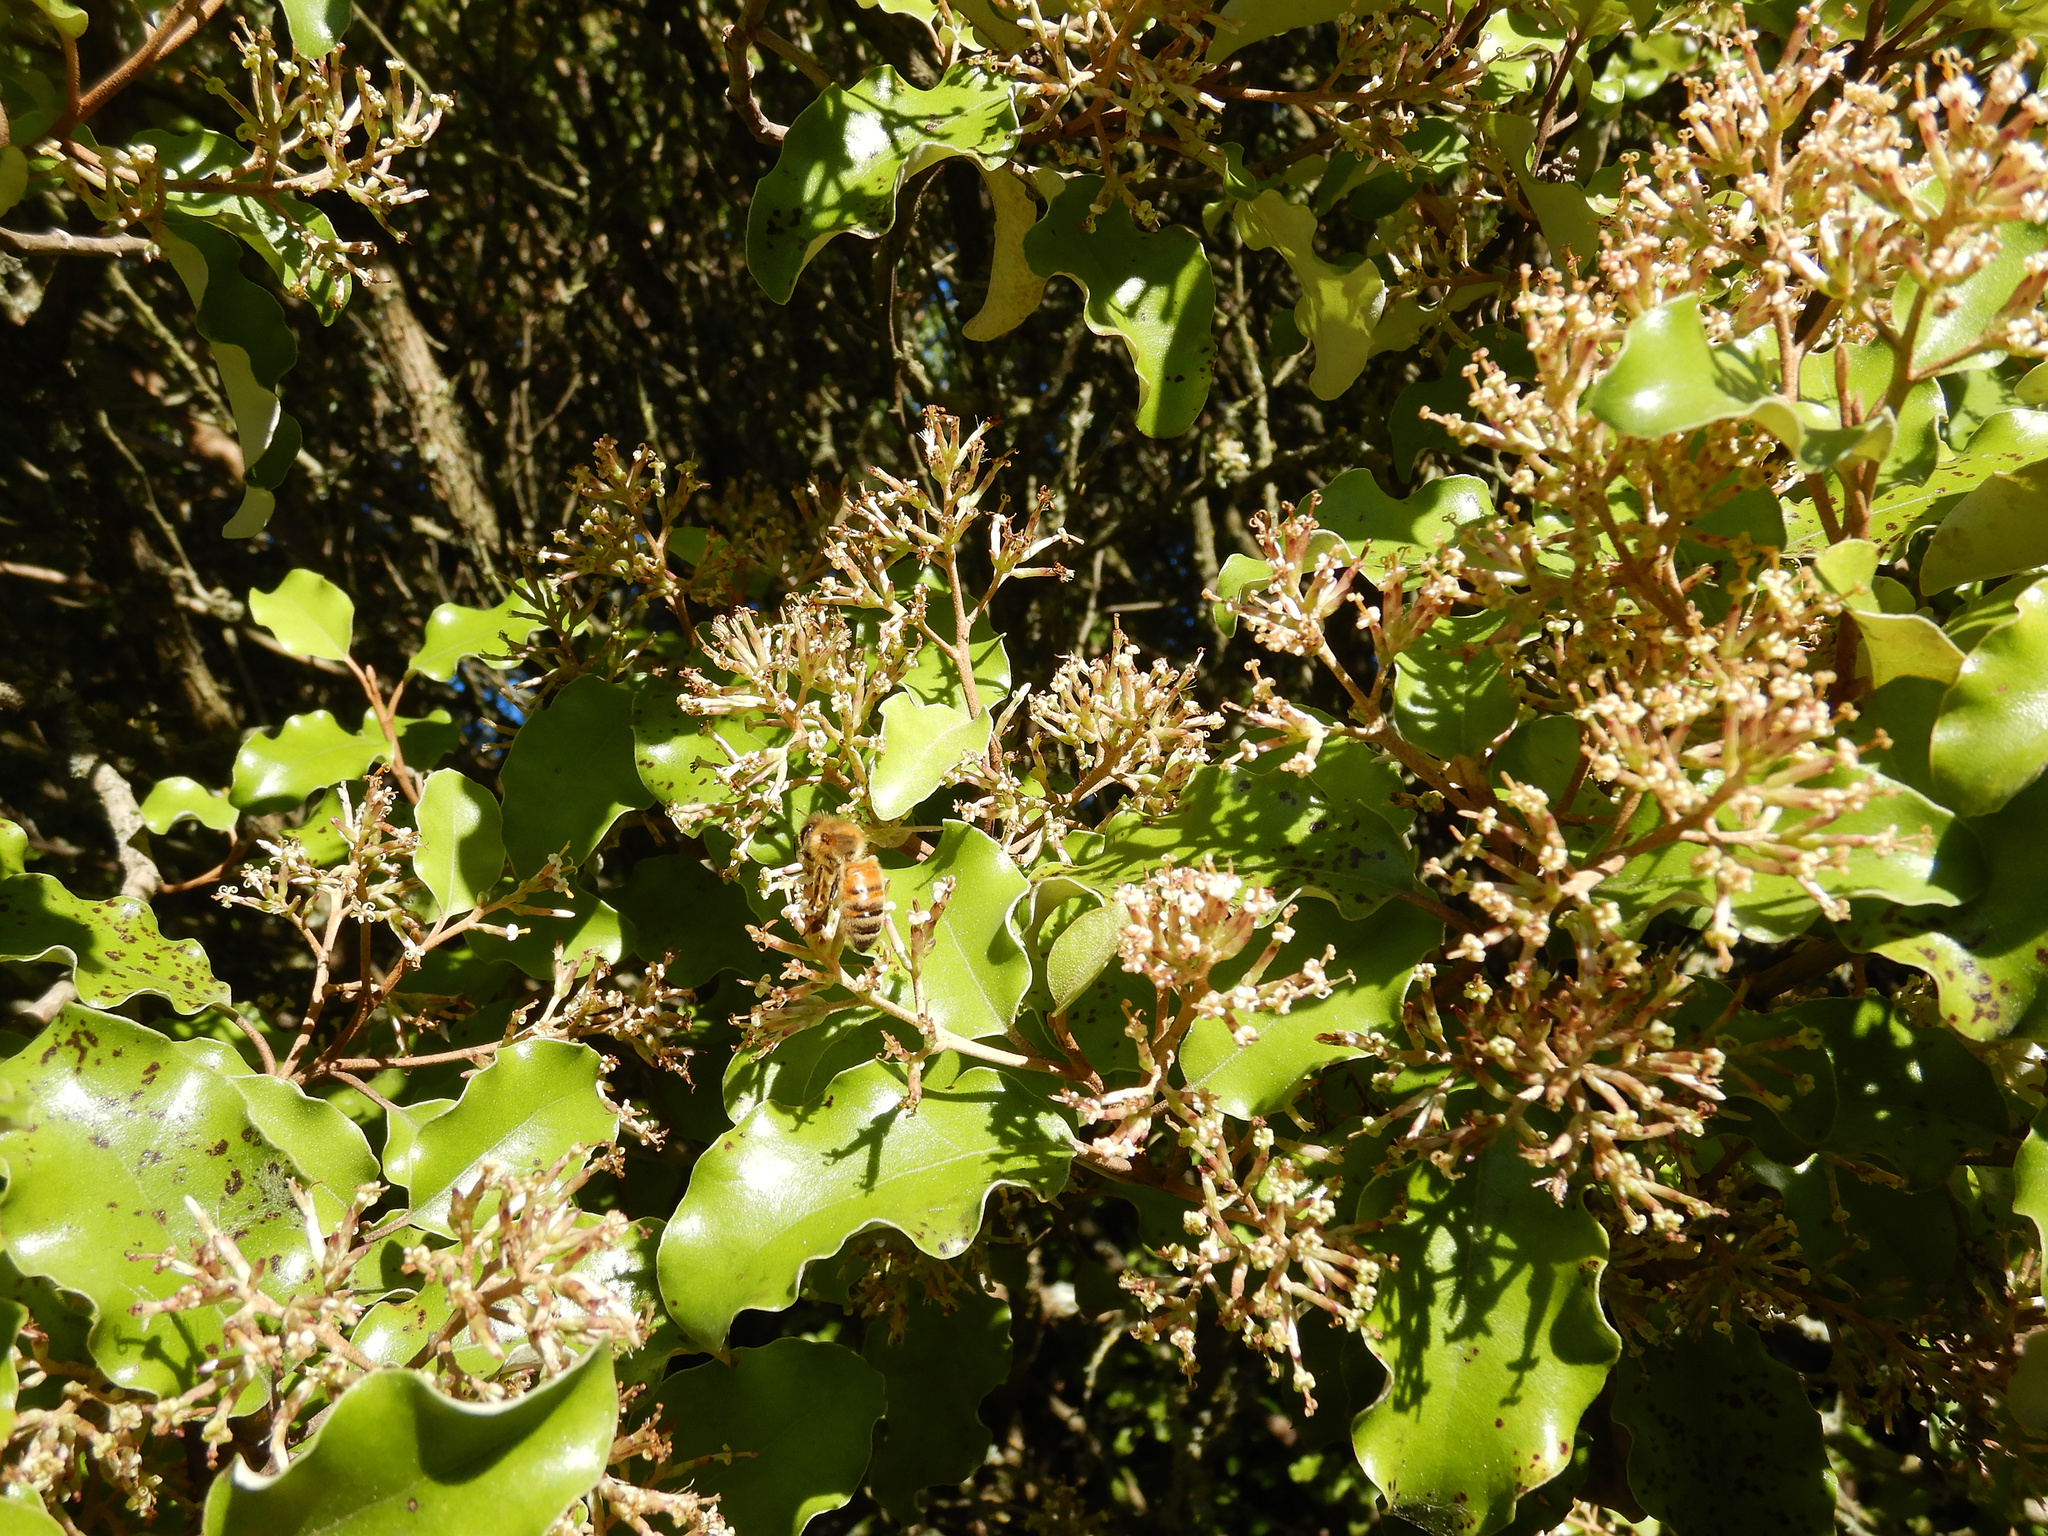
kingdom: Plantae
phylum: Tracheophyta
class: Magnoliopsida
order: Asterales
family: Asteraceae
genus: Olearia
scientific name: Olearia paniculata
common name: Akiraho
